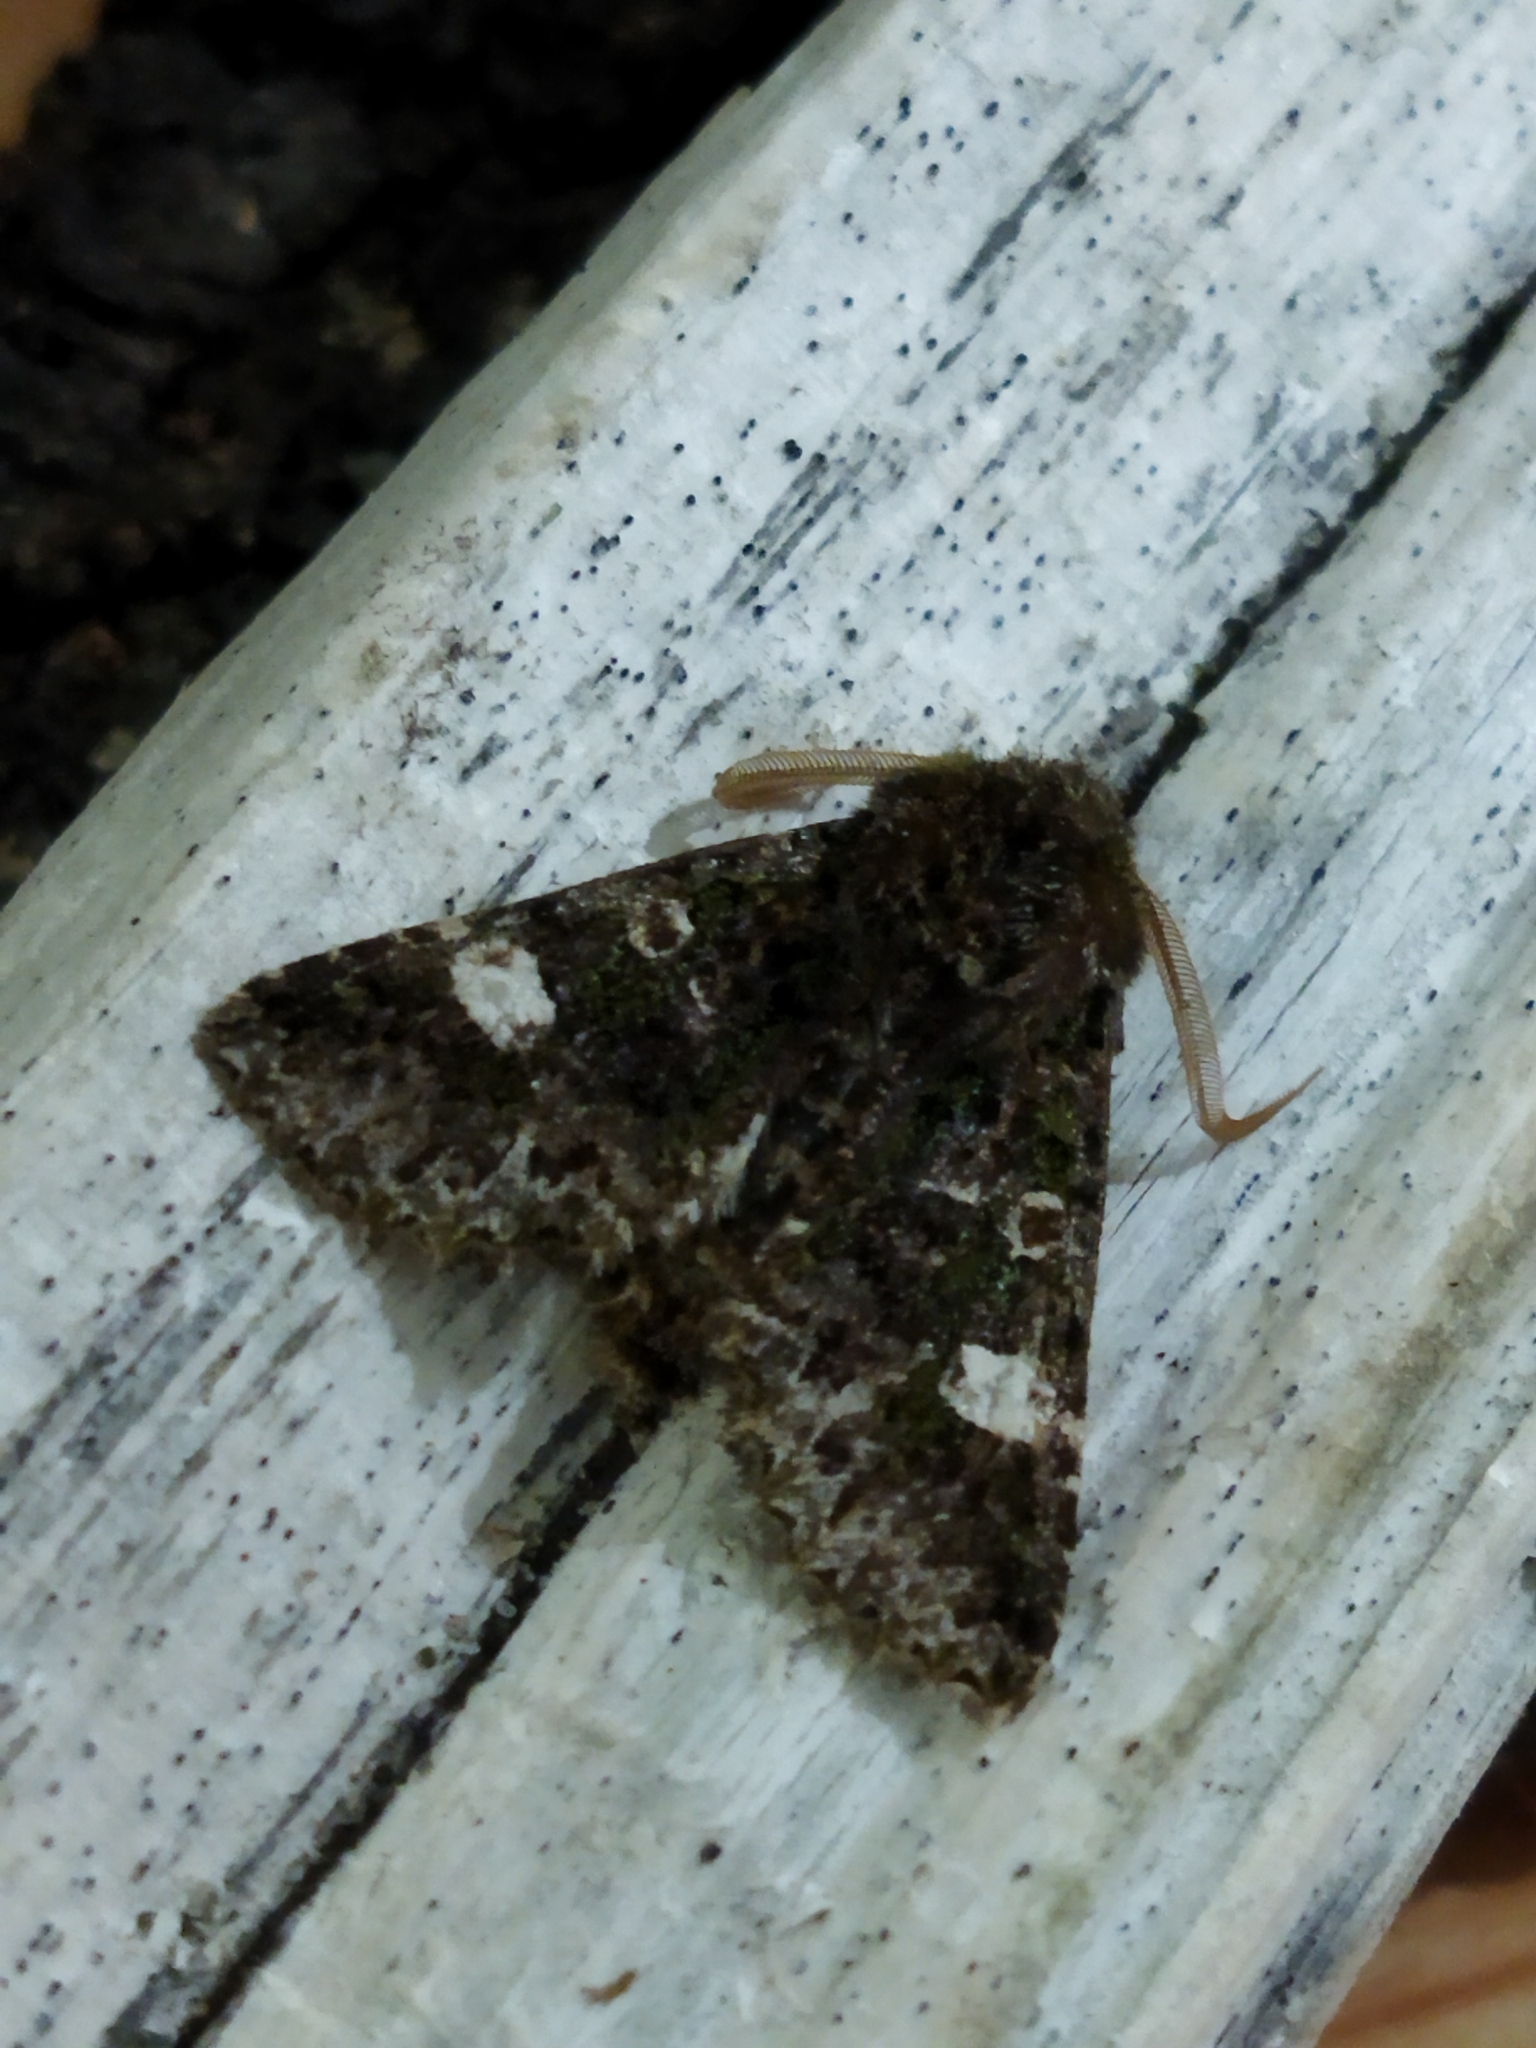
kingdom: Animalia
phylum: Arthropoda
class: Insecta
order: Lepidoptera
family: Noctuidae
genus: Valeria
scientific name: Valeria oleagina
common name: Green-brindled dot
